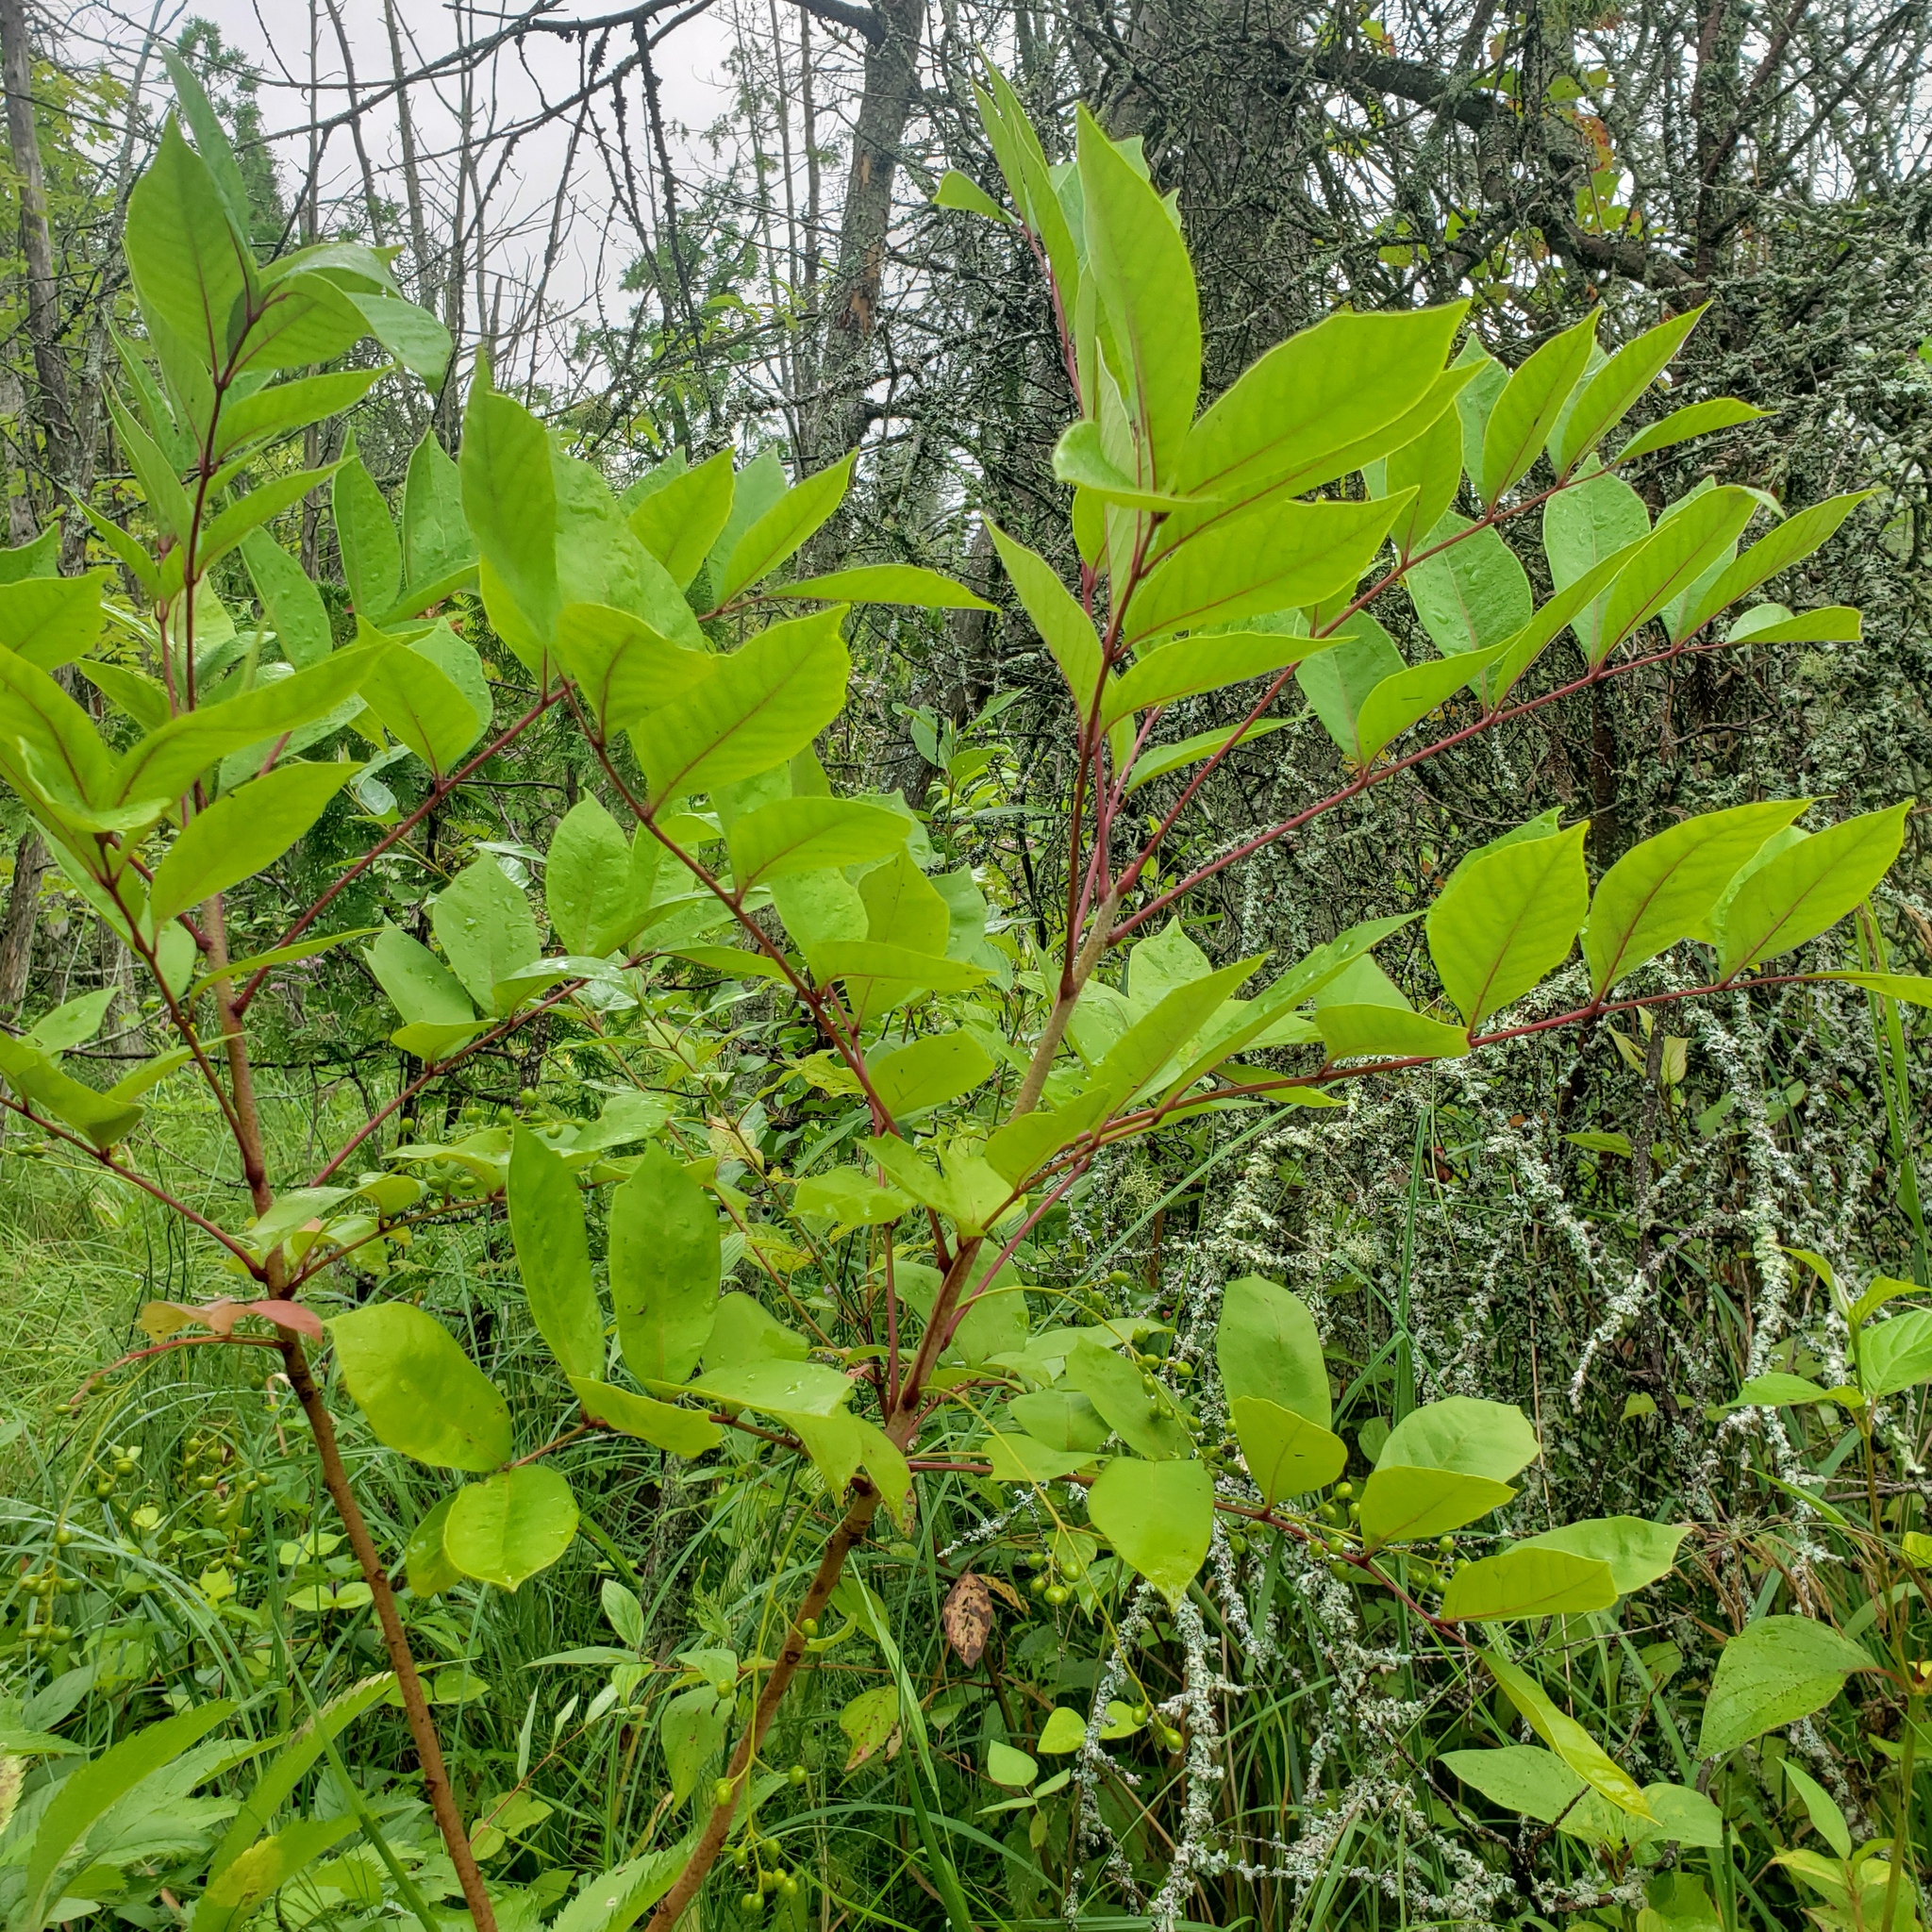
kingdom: Plantae
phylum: Tracheophyta
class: Magnoliopsida
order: Sapindales
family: Anacardiaceae
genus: Toxicodendron
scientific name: Toxicodendron vernix
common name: Poison sumac
